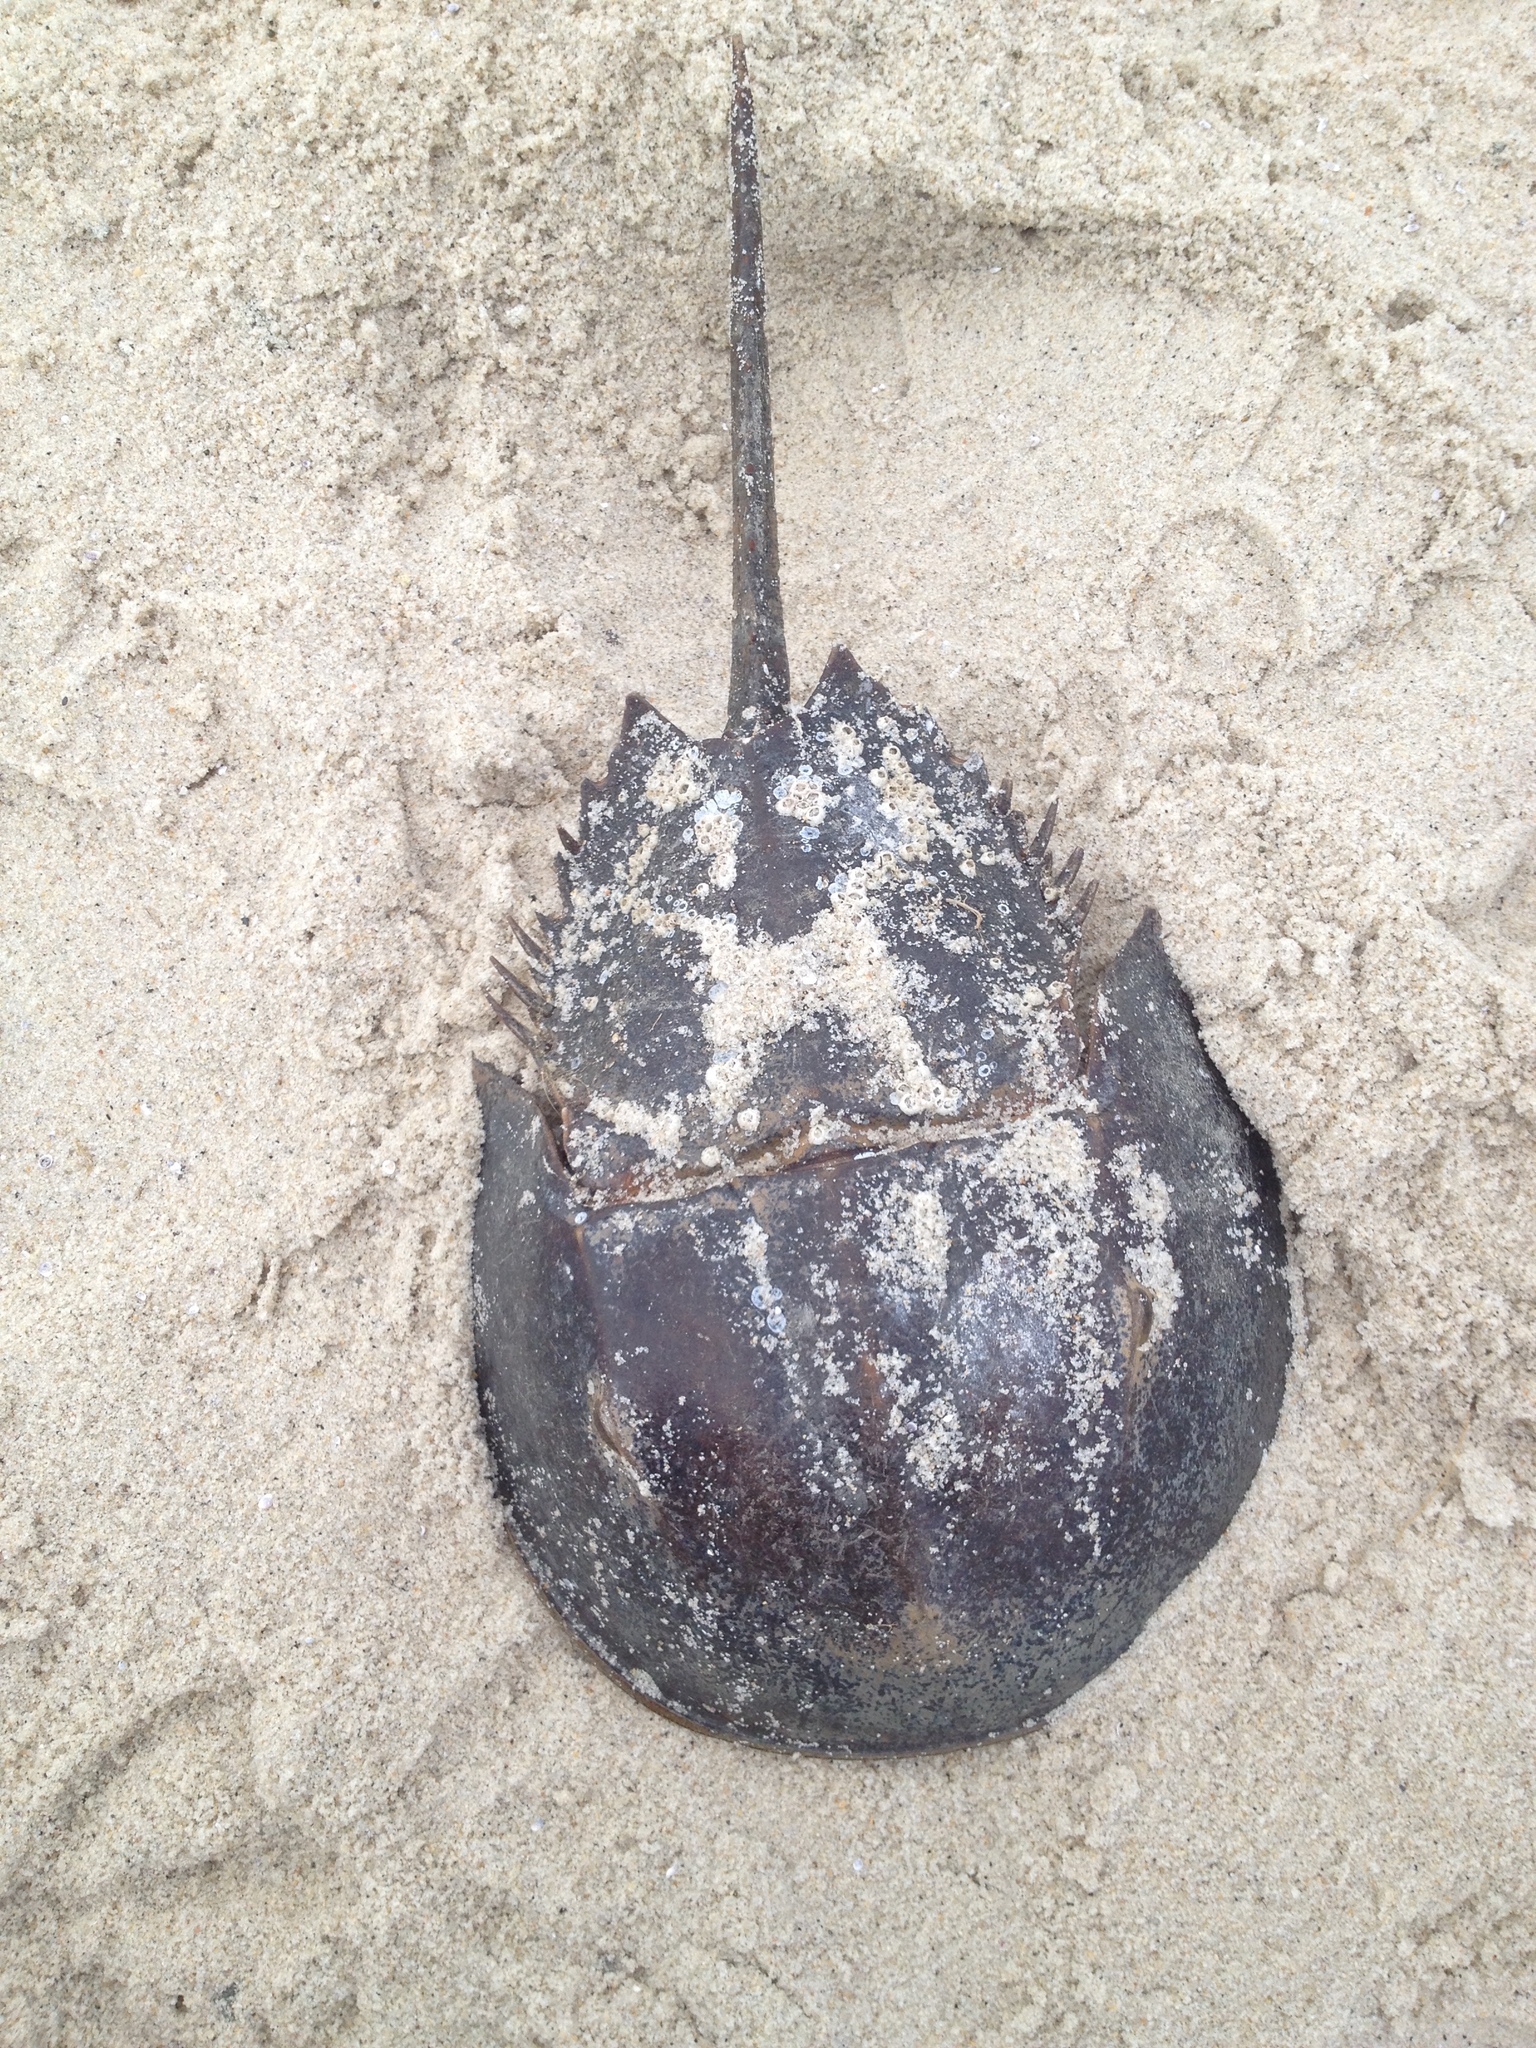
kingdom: Animalia
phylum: Arthropoda
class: Merostomata
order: Xiphosurida
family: Limulidae
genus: Limulus
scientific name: Limulus polyphemus
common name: Horseshoe crab
